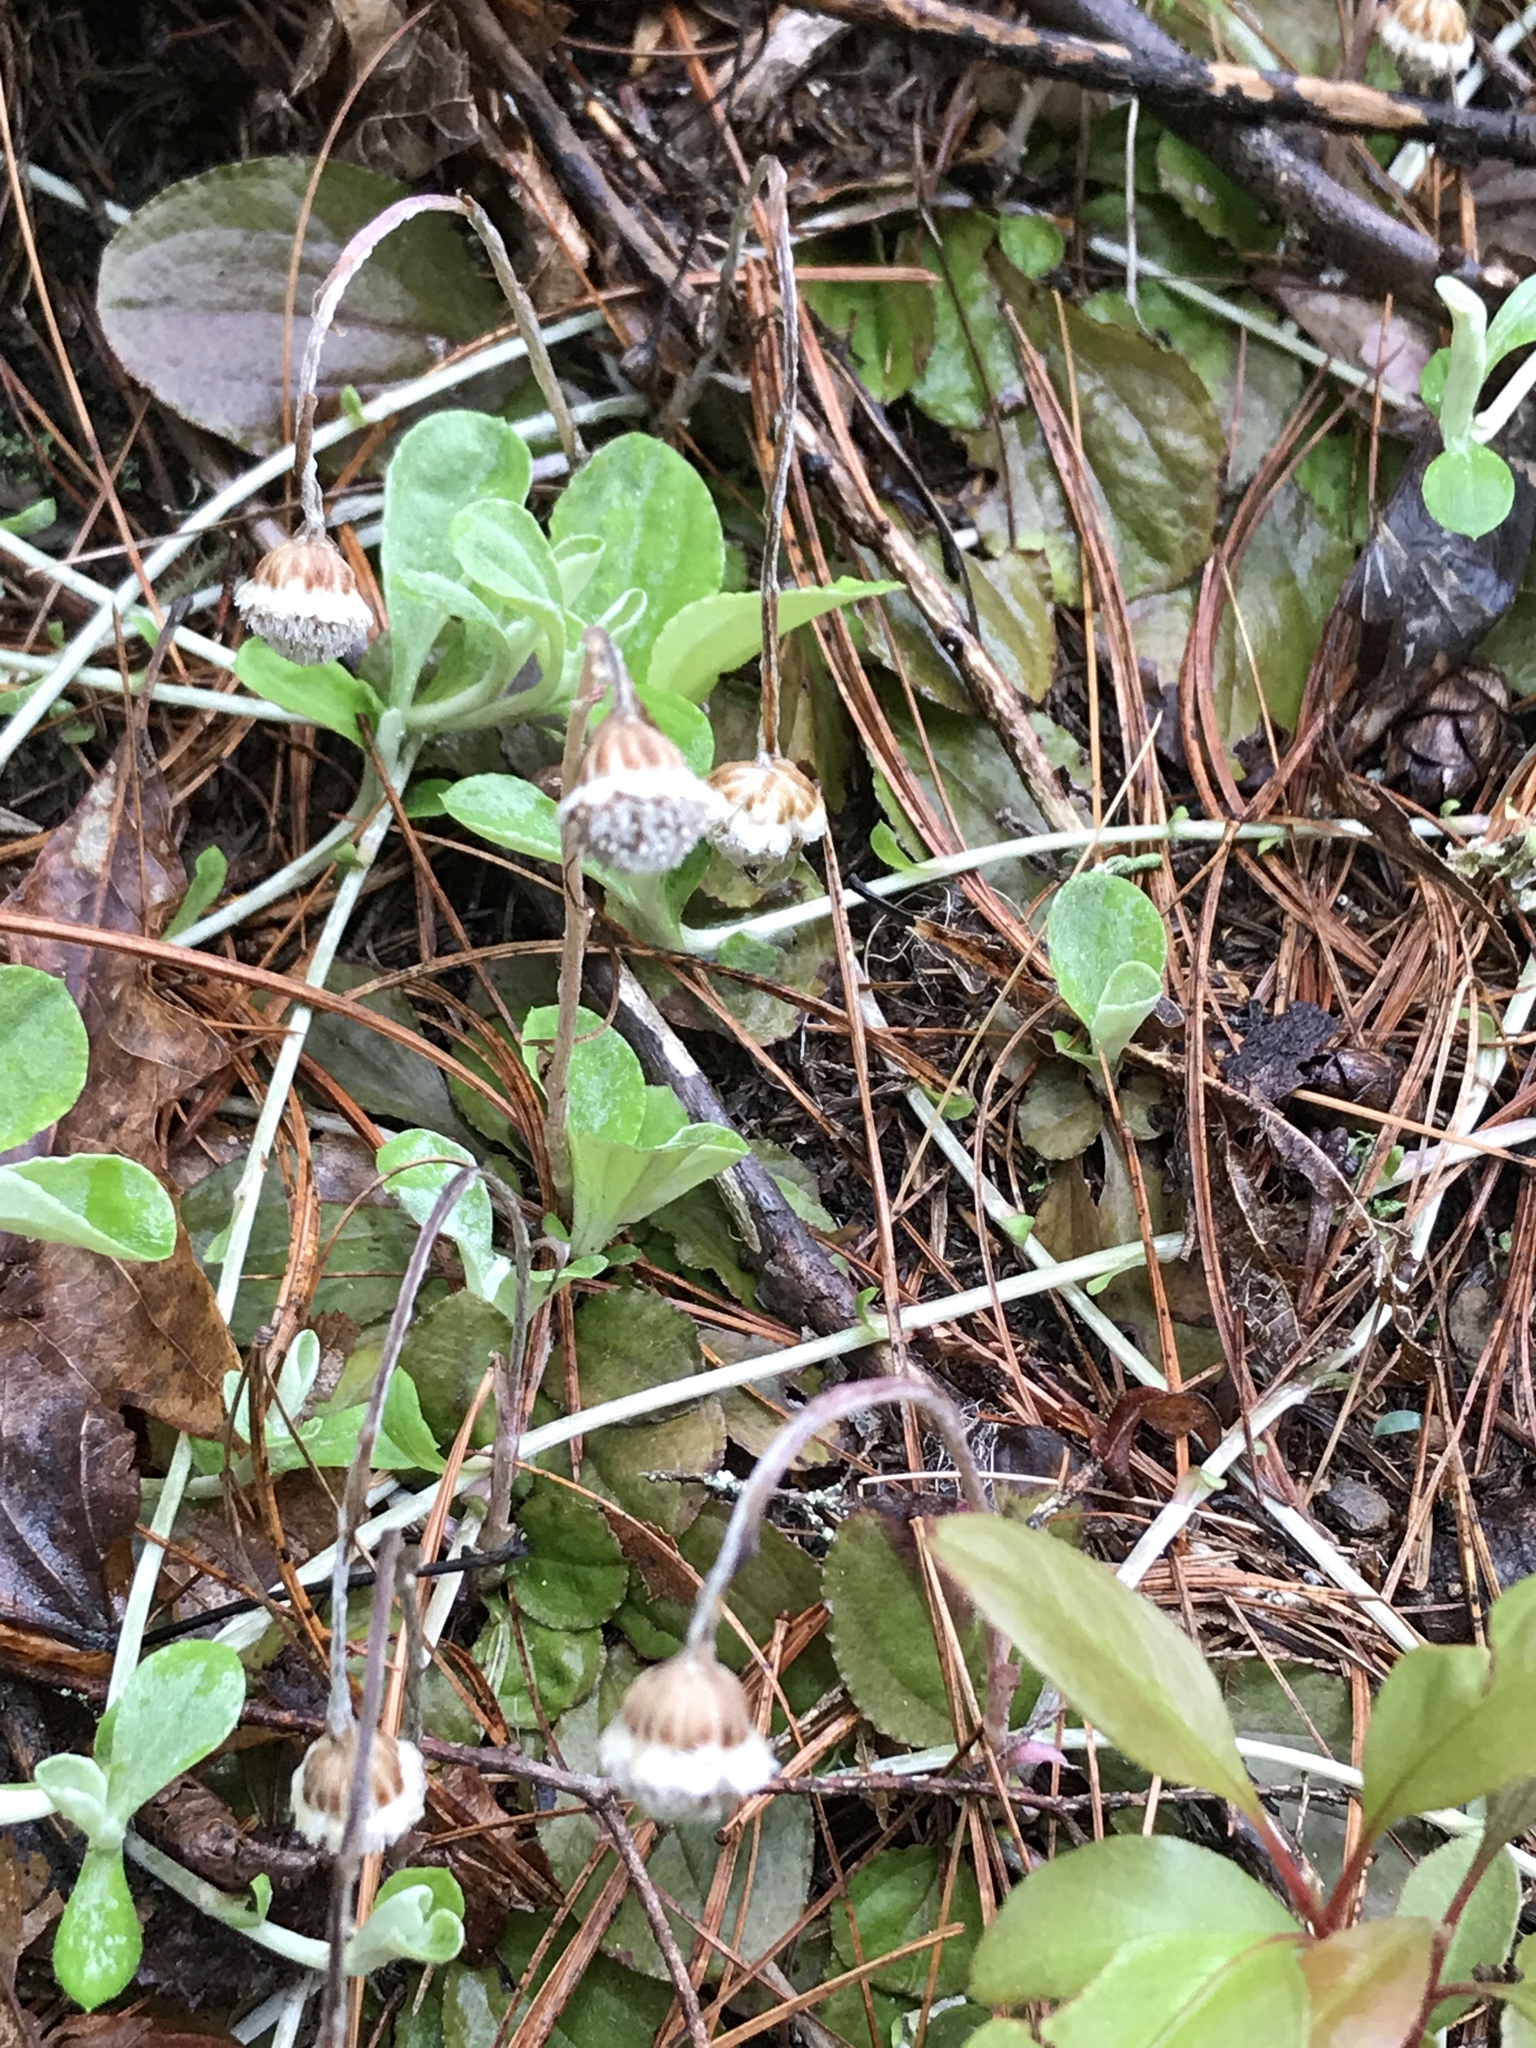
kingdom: Plantae
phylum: Tracheophyta
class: Magnoliopsida
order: Asterales
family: Asteraceae
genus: Antennaria
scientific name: Antennaria solitaria
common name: Single-head pussytoes
